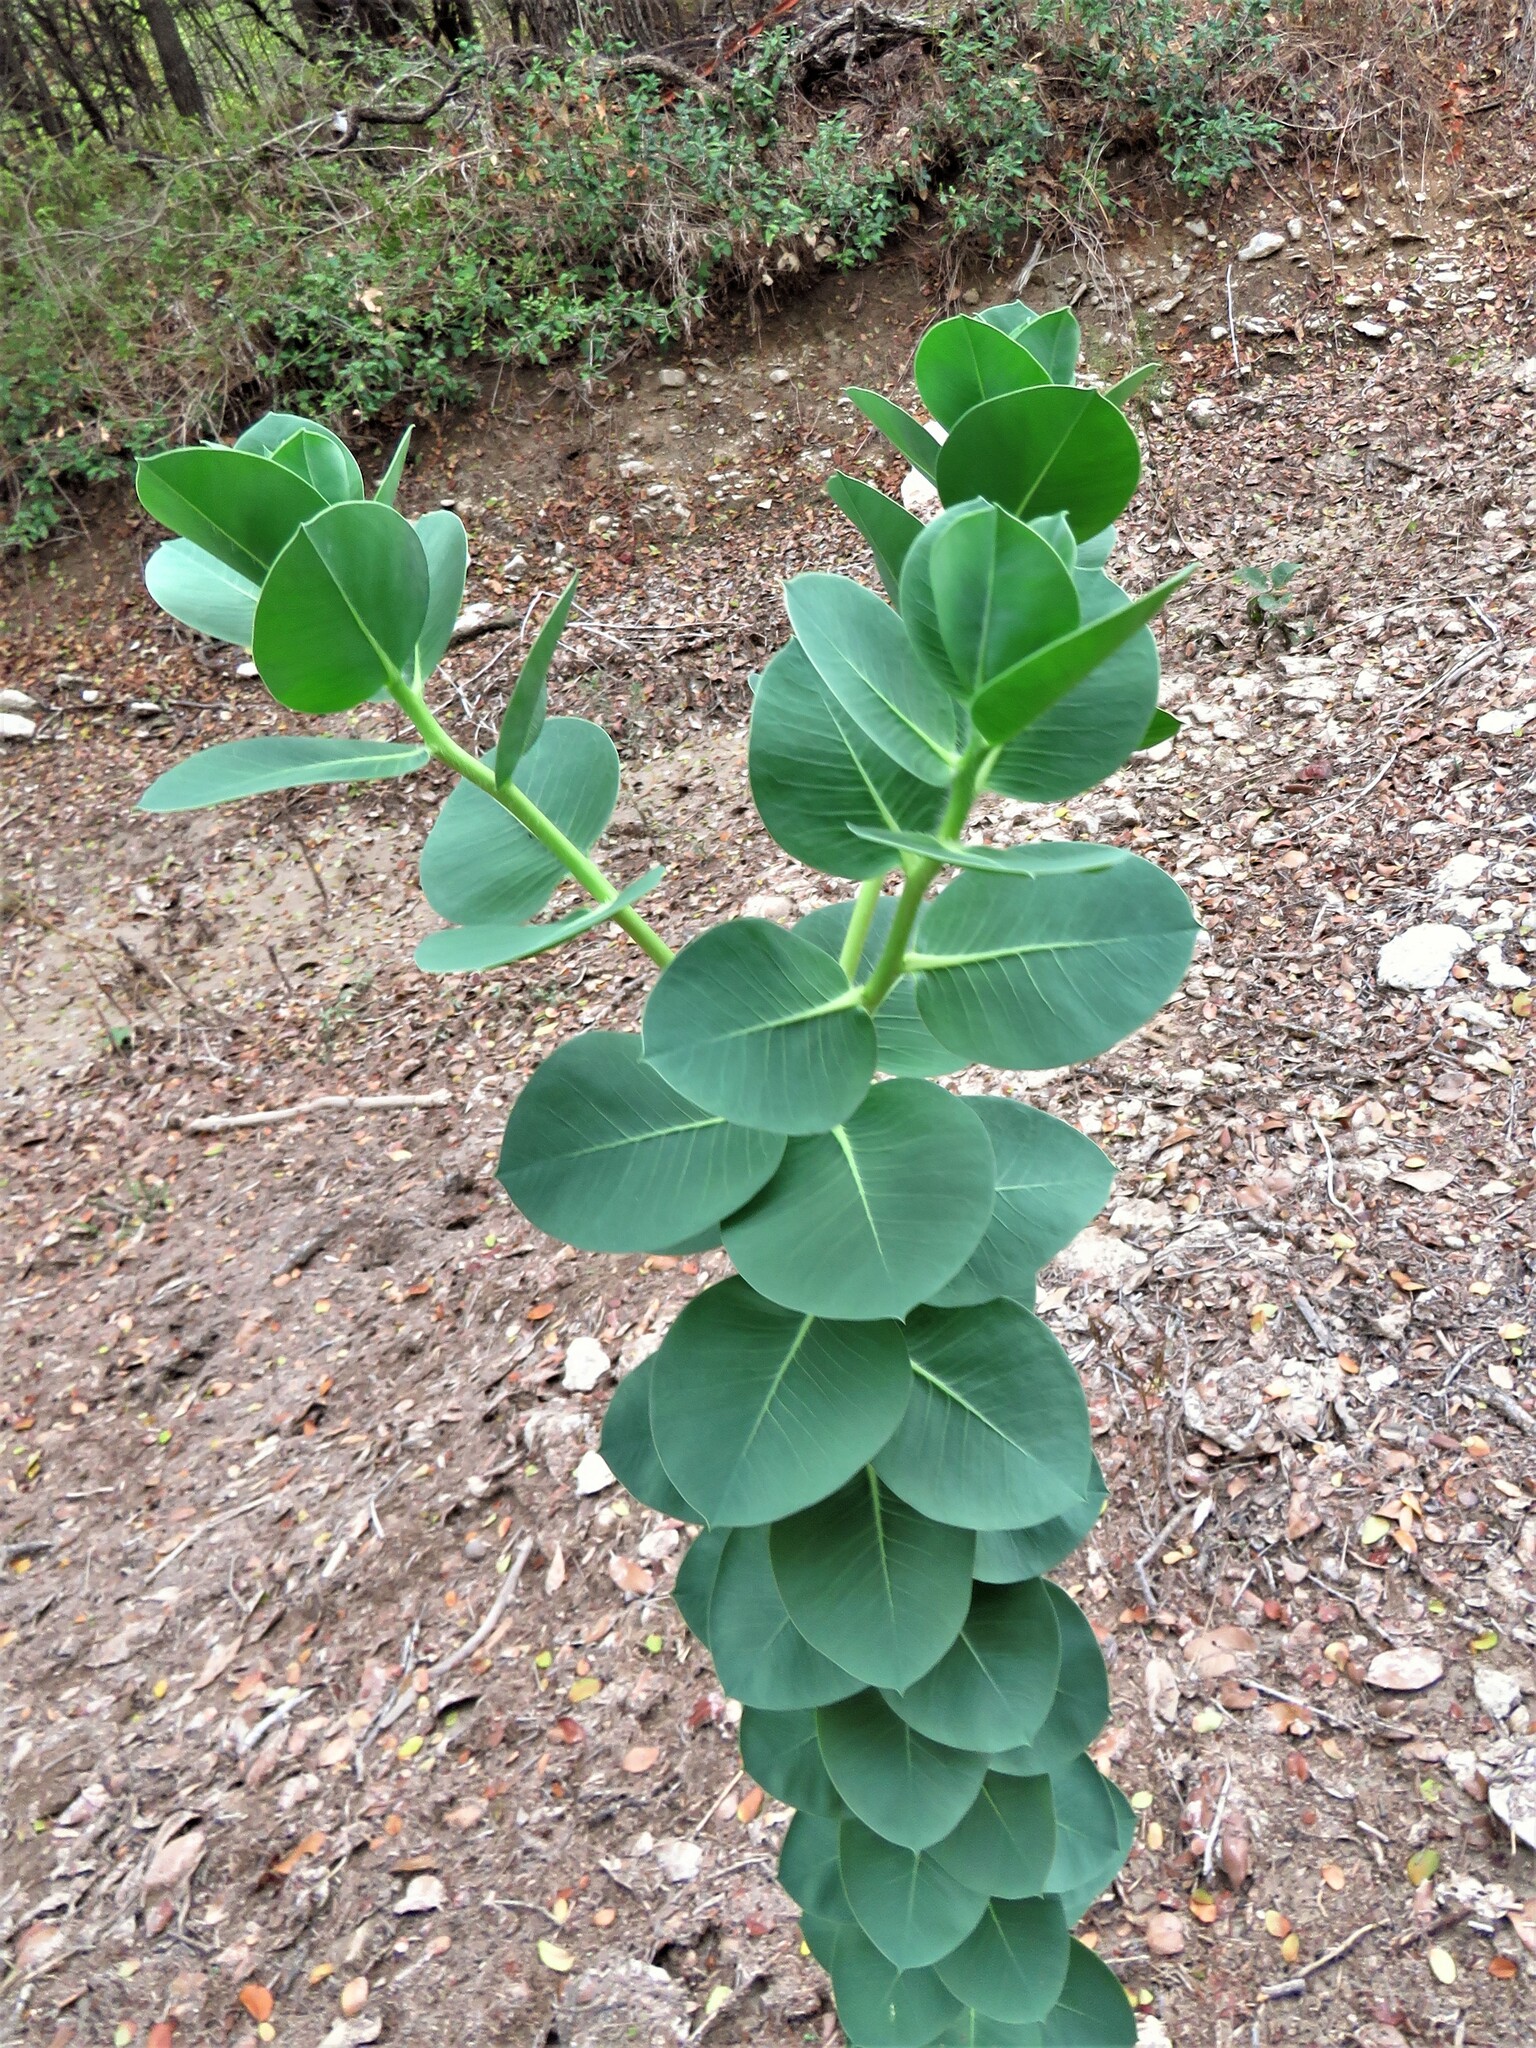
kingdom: Plantae
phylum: Tracheophyta
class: Magnoliopsida
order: Malpighiales
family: Euphorbiaceae
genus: Euphorbia
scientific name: Euphorbia marginata
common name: Ghostweed
